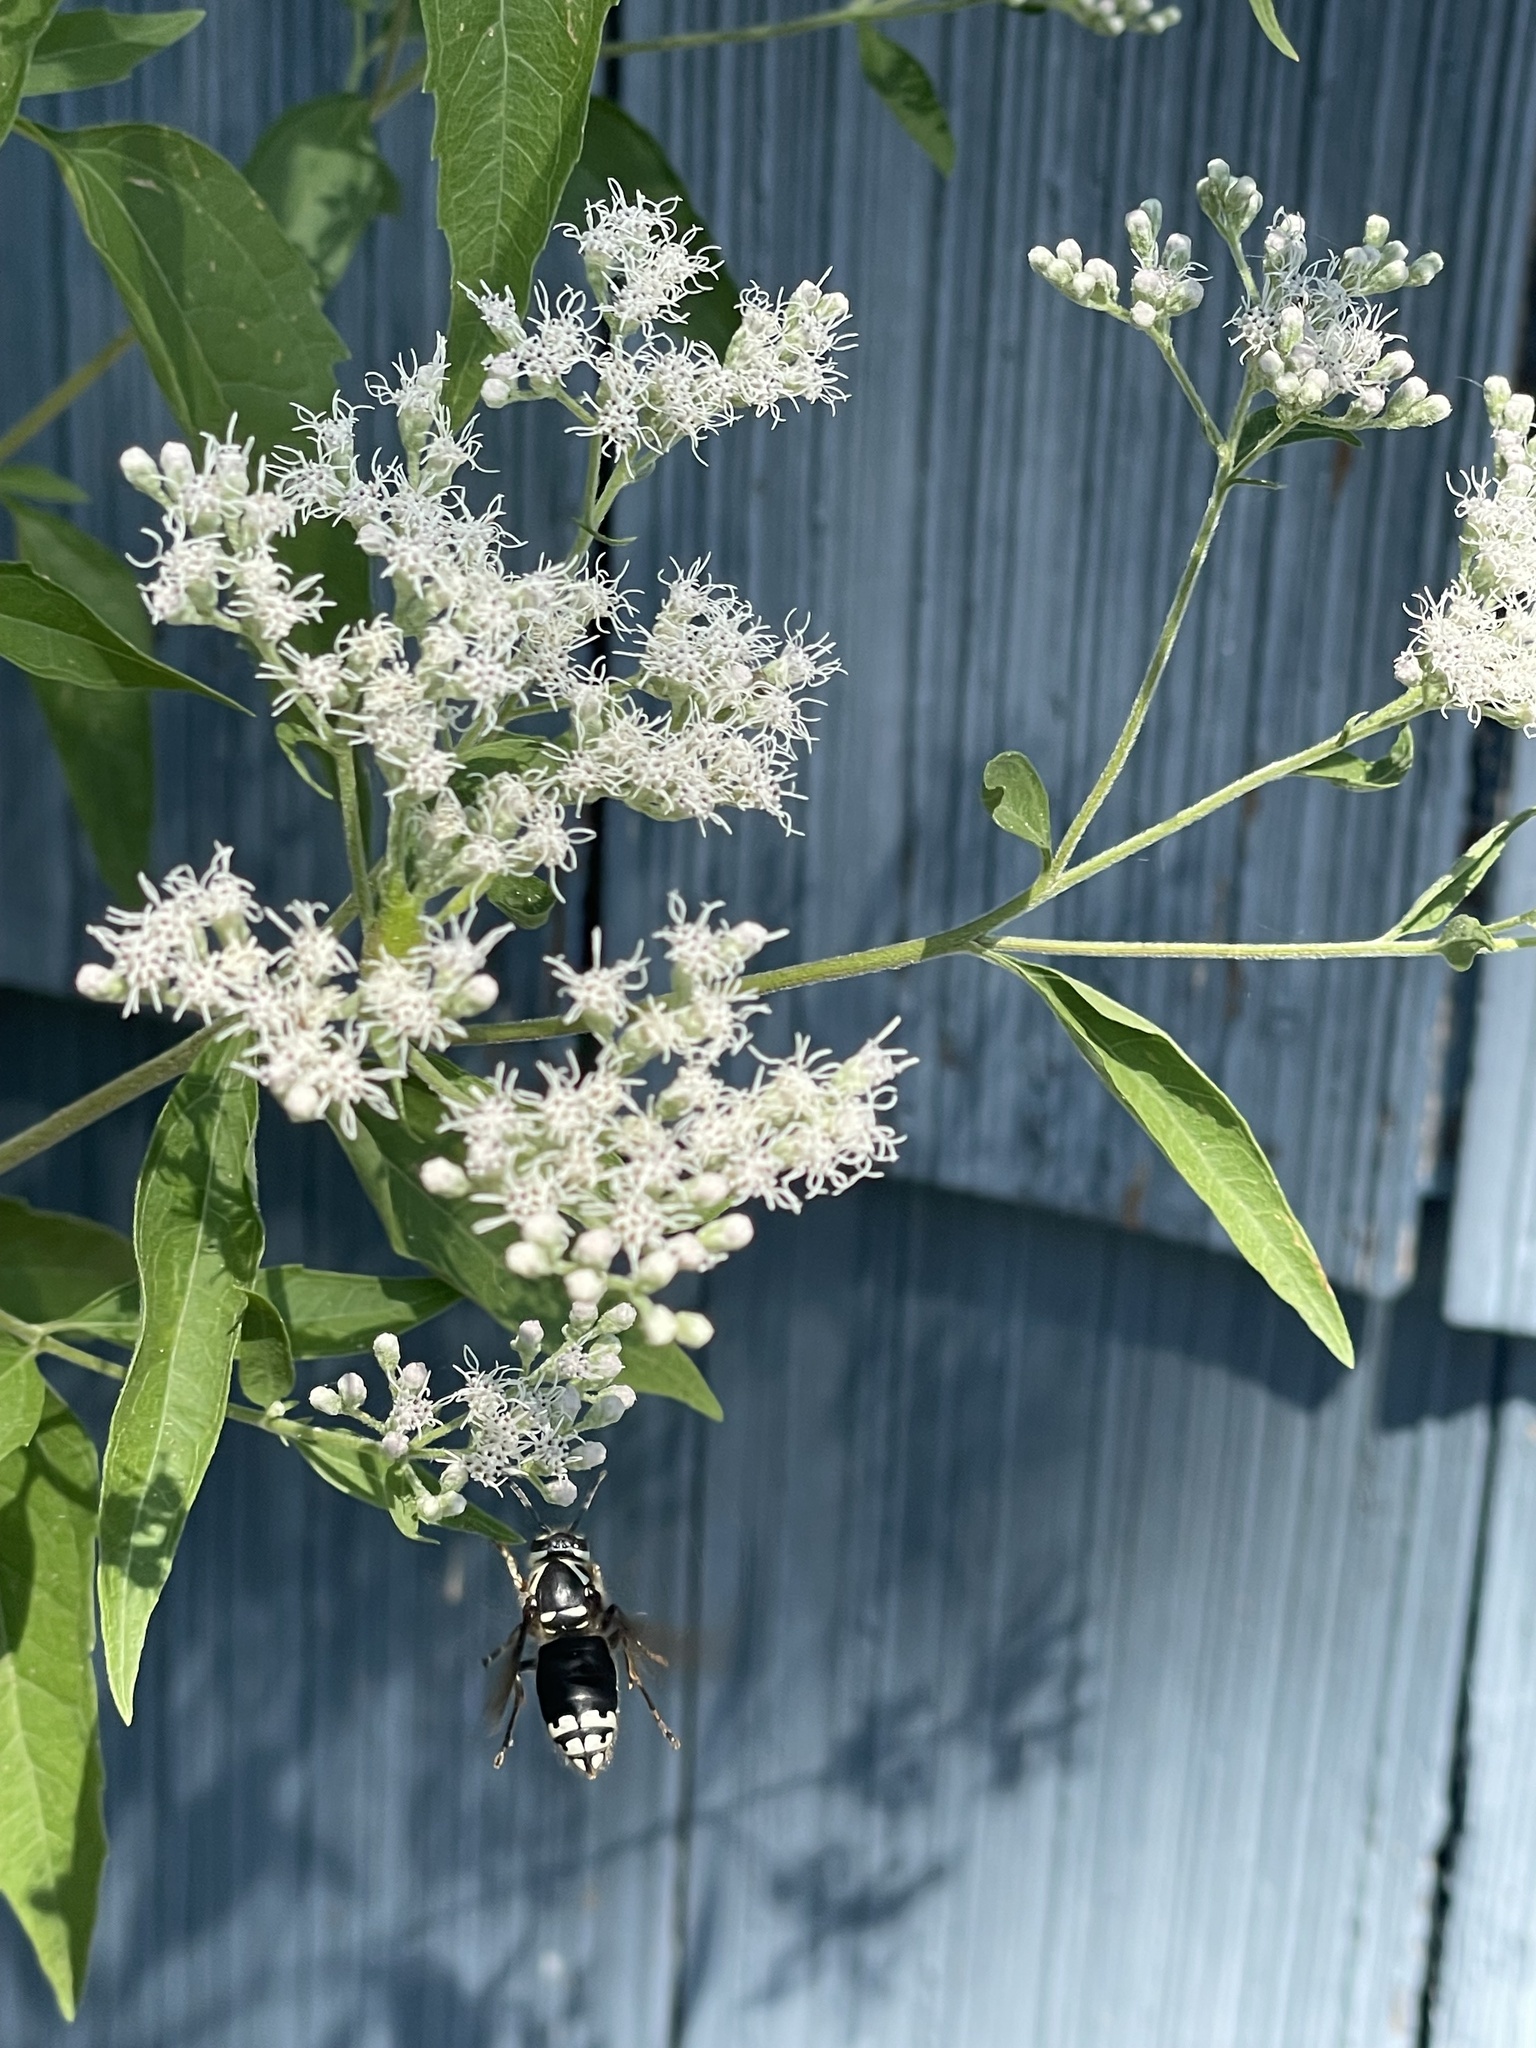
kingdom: Animalia
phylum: Arthropoda
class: Insecta
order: Hymenoptera
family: Vespidae
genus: Dolichovespula
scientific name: Dolichovespula maculata
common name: Bald-faced hornet
